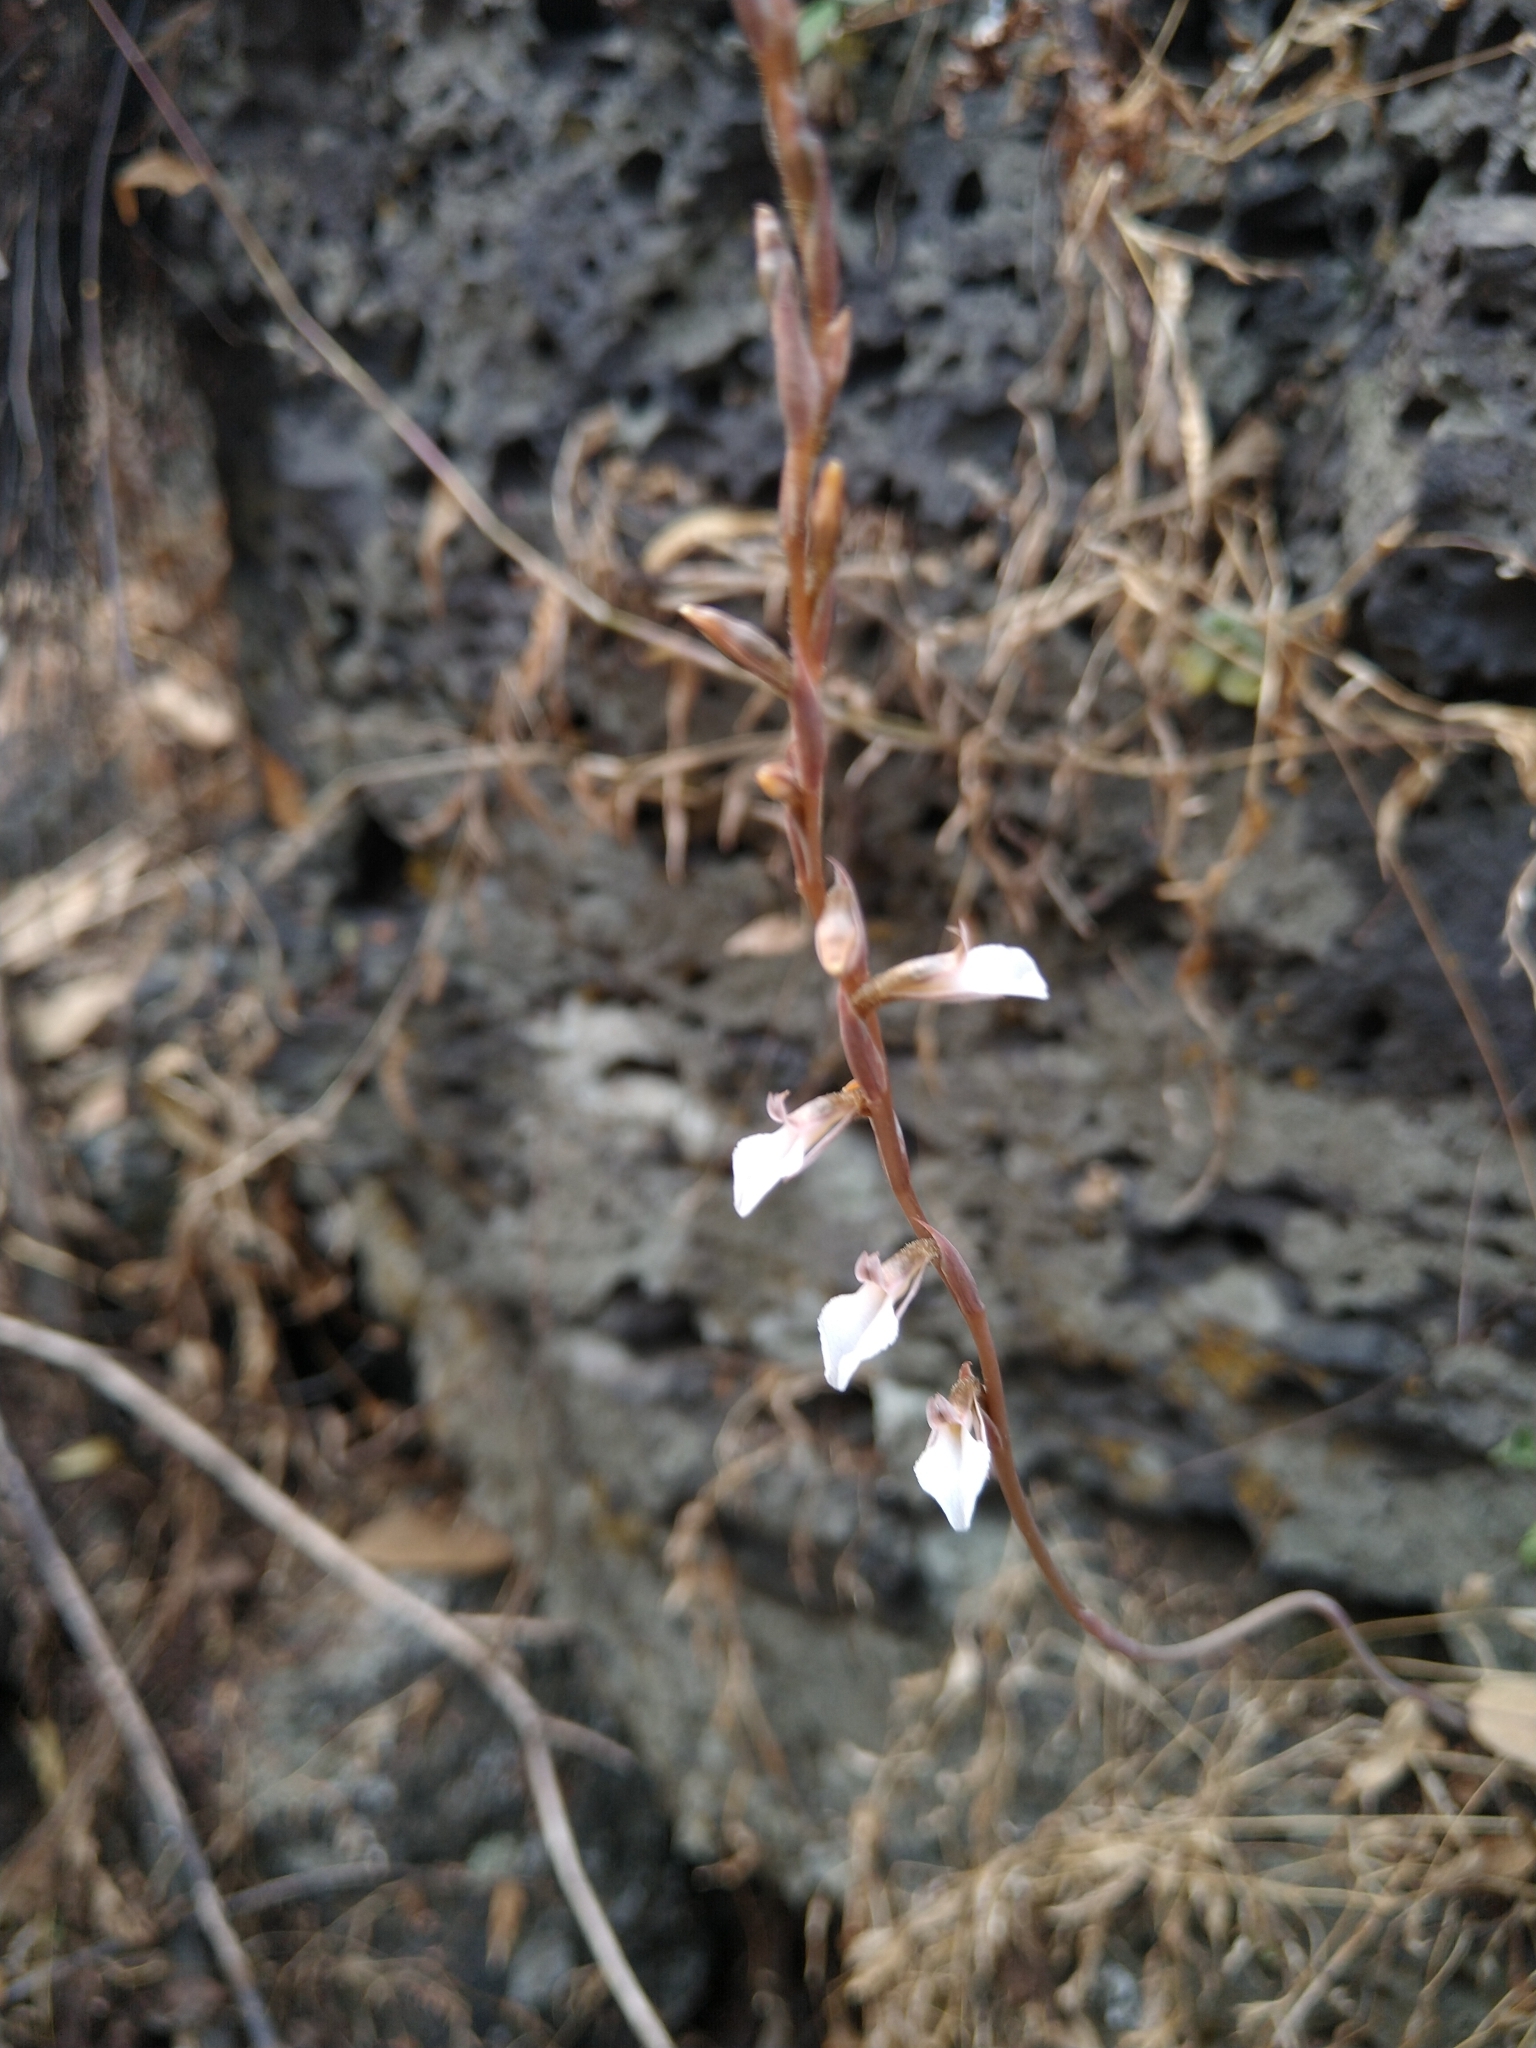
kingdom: Plantae
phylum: Tracheophyta
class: Liliopsida
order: Asparagales
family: Orchidaceae
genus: Greenwoodiella
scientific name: Greenwoodiella micrantha
